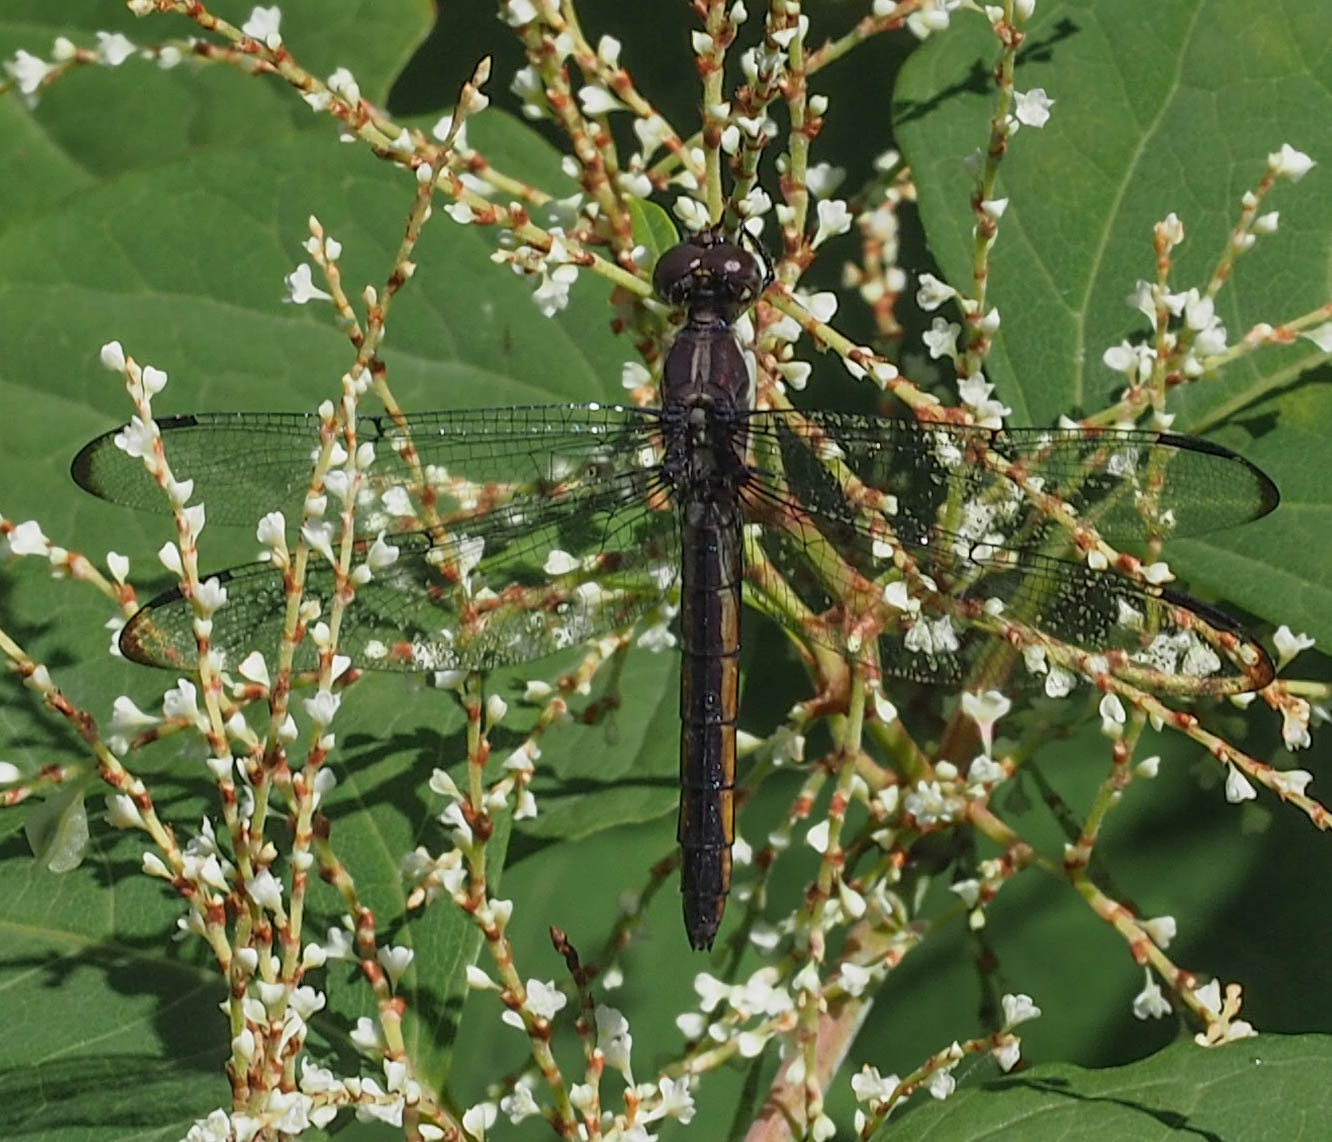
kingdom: Animalia
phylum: Arthropoda
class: Insecta
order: Odonata
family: Libellulidae
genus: Libellula
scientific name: Libellula incesta
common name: Slaty skimmer
